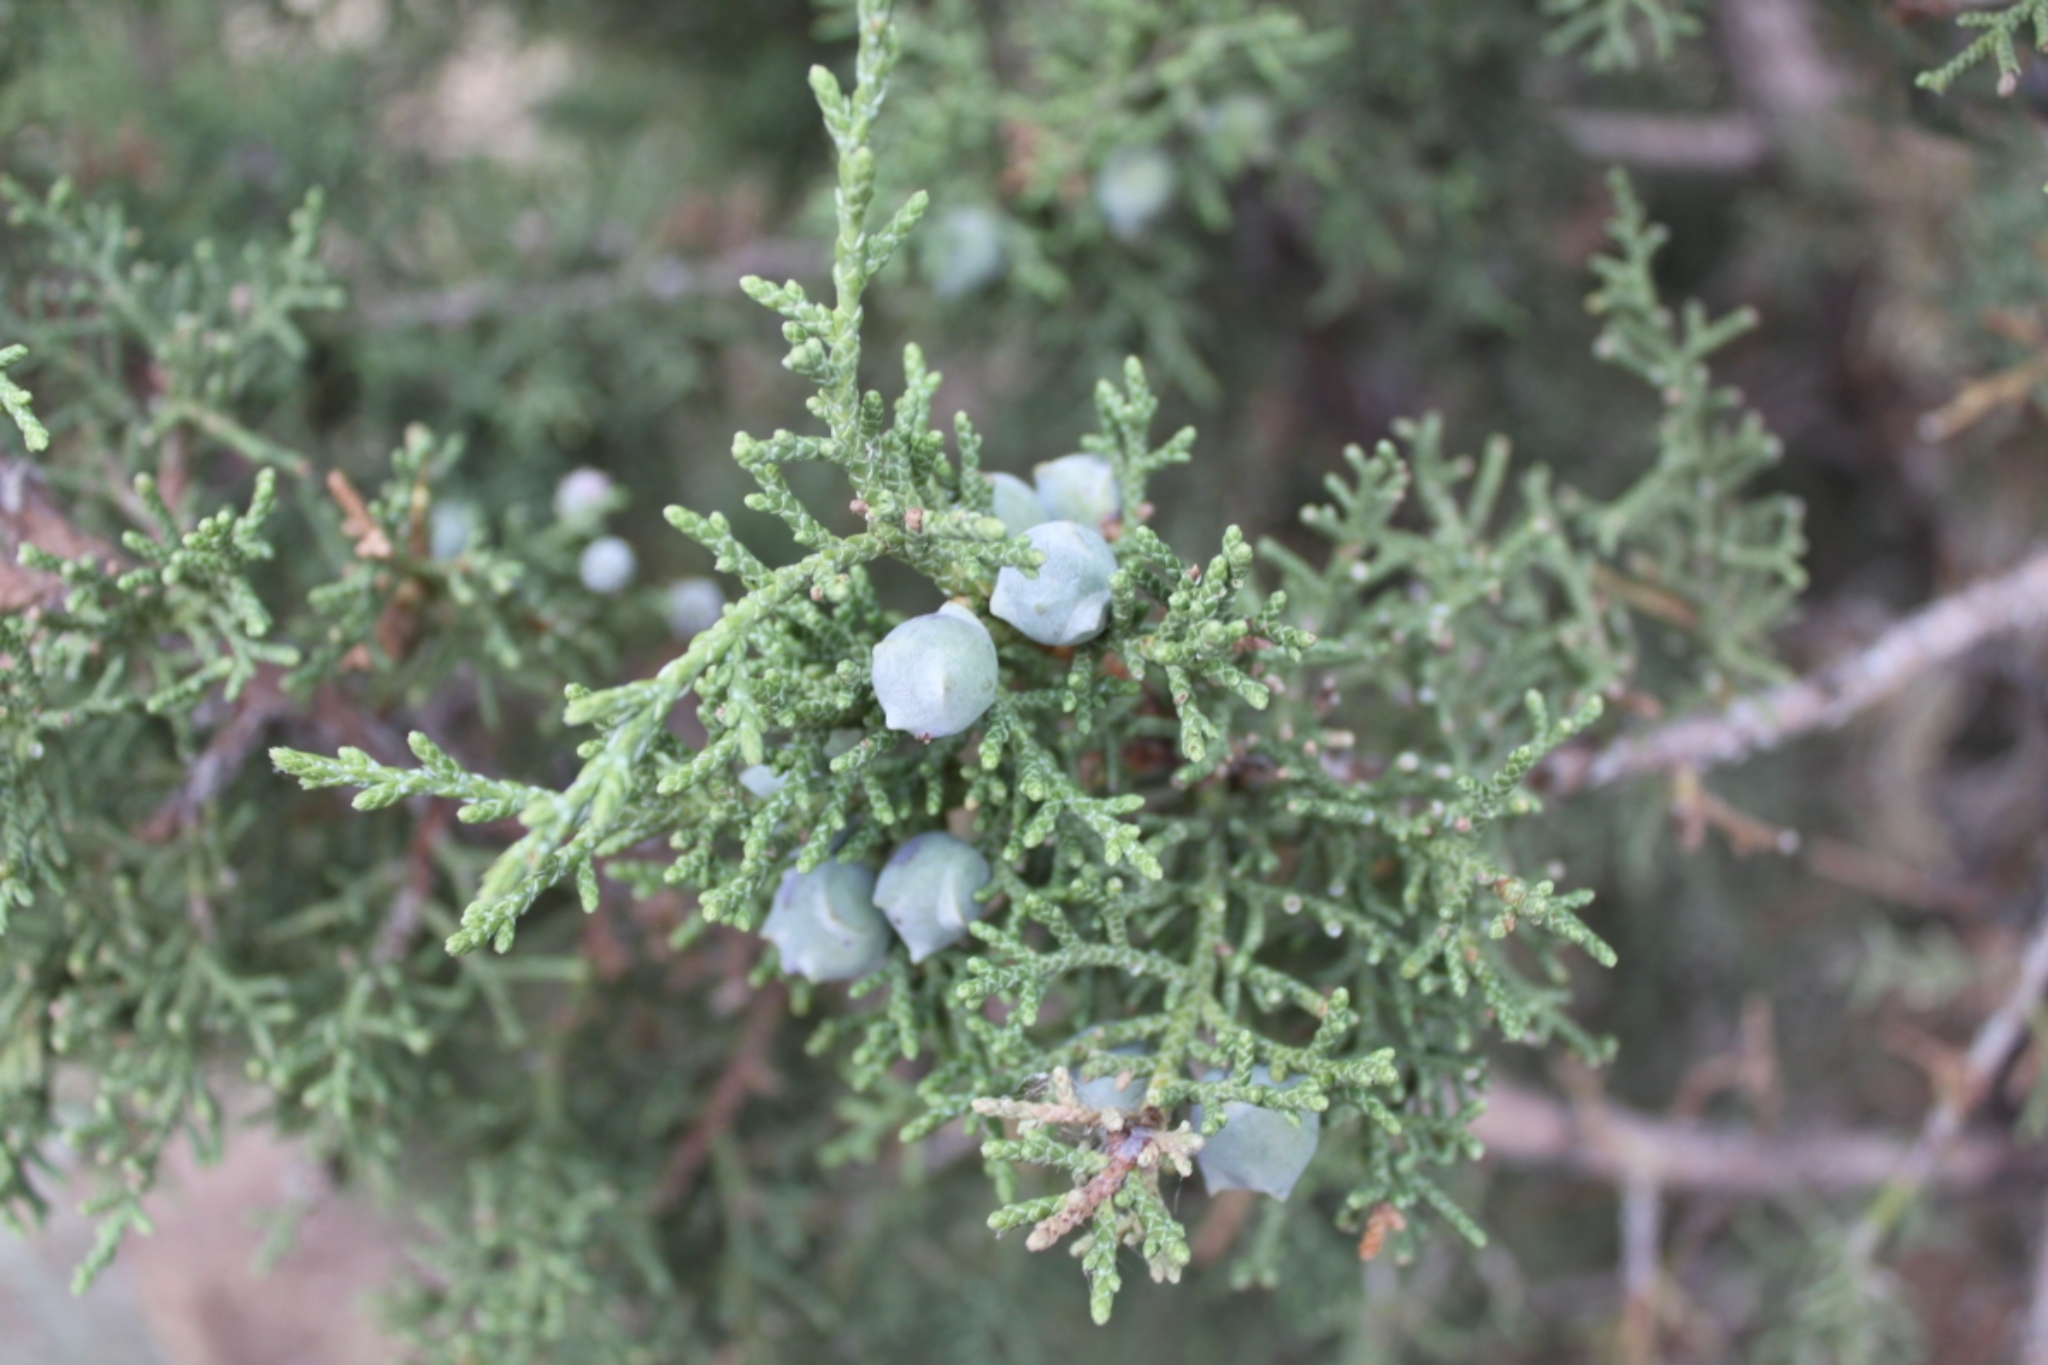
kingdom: Plantae
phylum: Tracheophyta
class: Pinopsida
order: Pinales
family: Cupressaceae
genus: Juniperus
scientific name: Juniperus osteosperma
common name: Utah juniper
